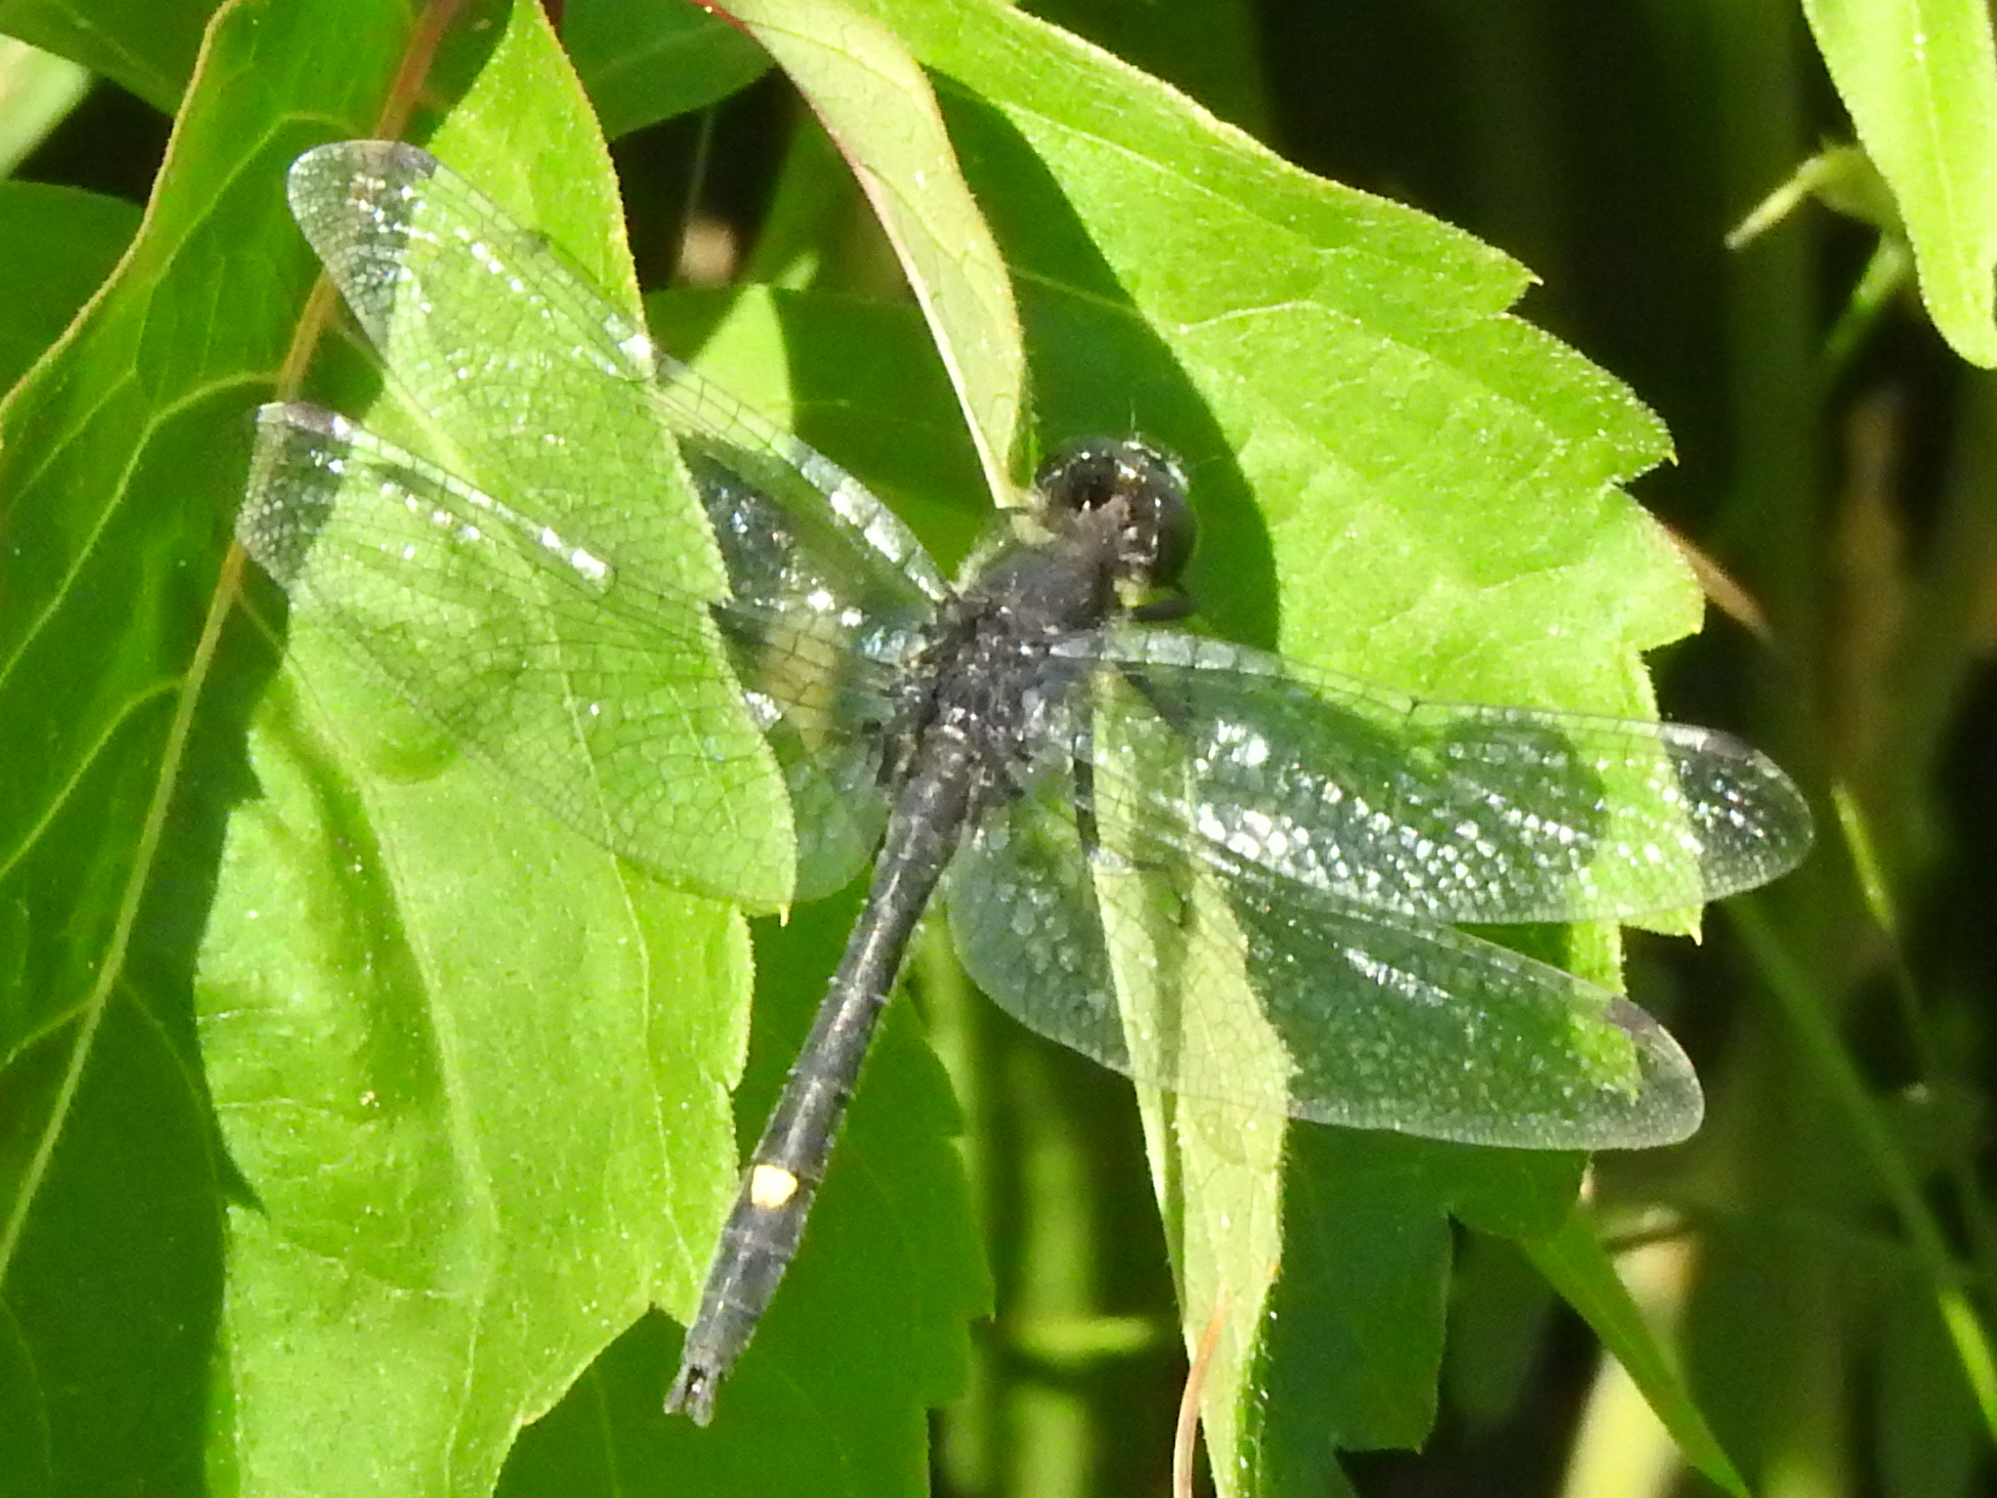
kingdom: Animalia
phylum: Arthropoda
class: Insecta
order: Odonata
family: Libellulidae
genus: Leucorrhinia
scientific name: Leucorrhinia intacta
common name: Dot-tailed whiteface
